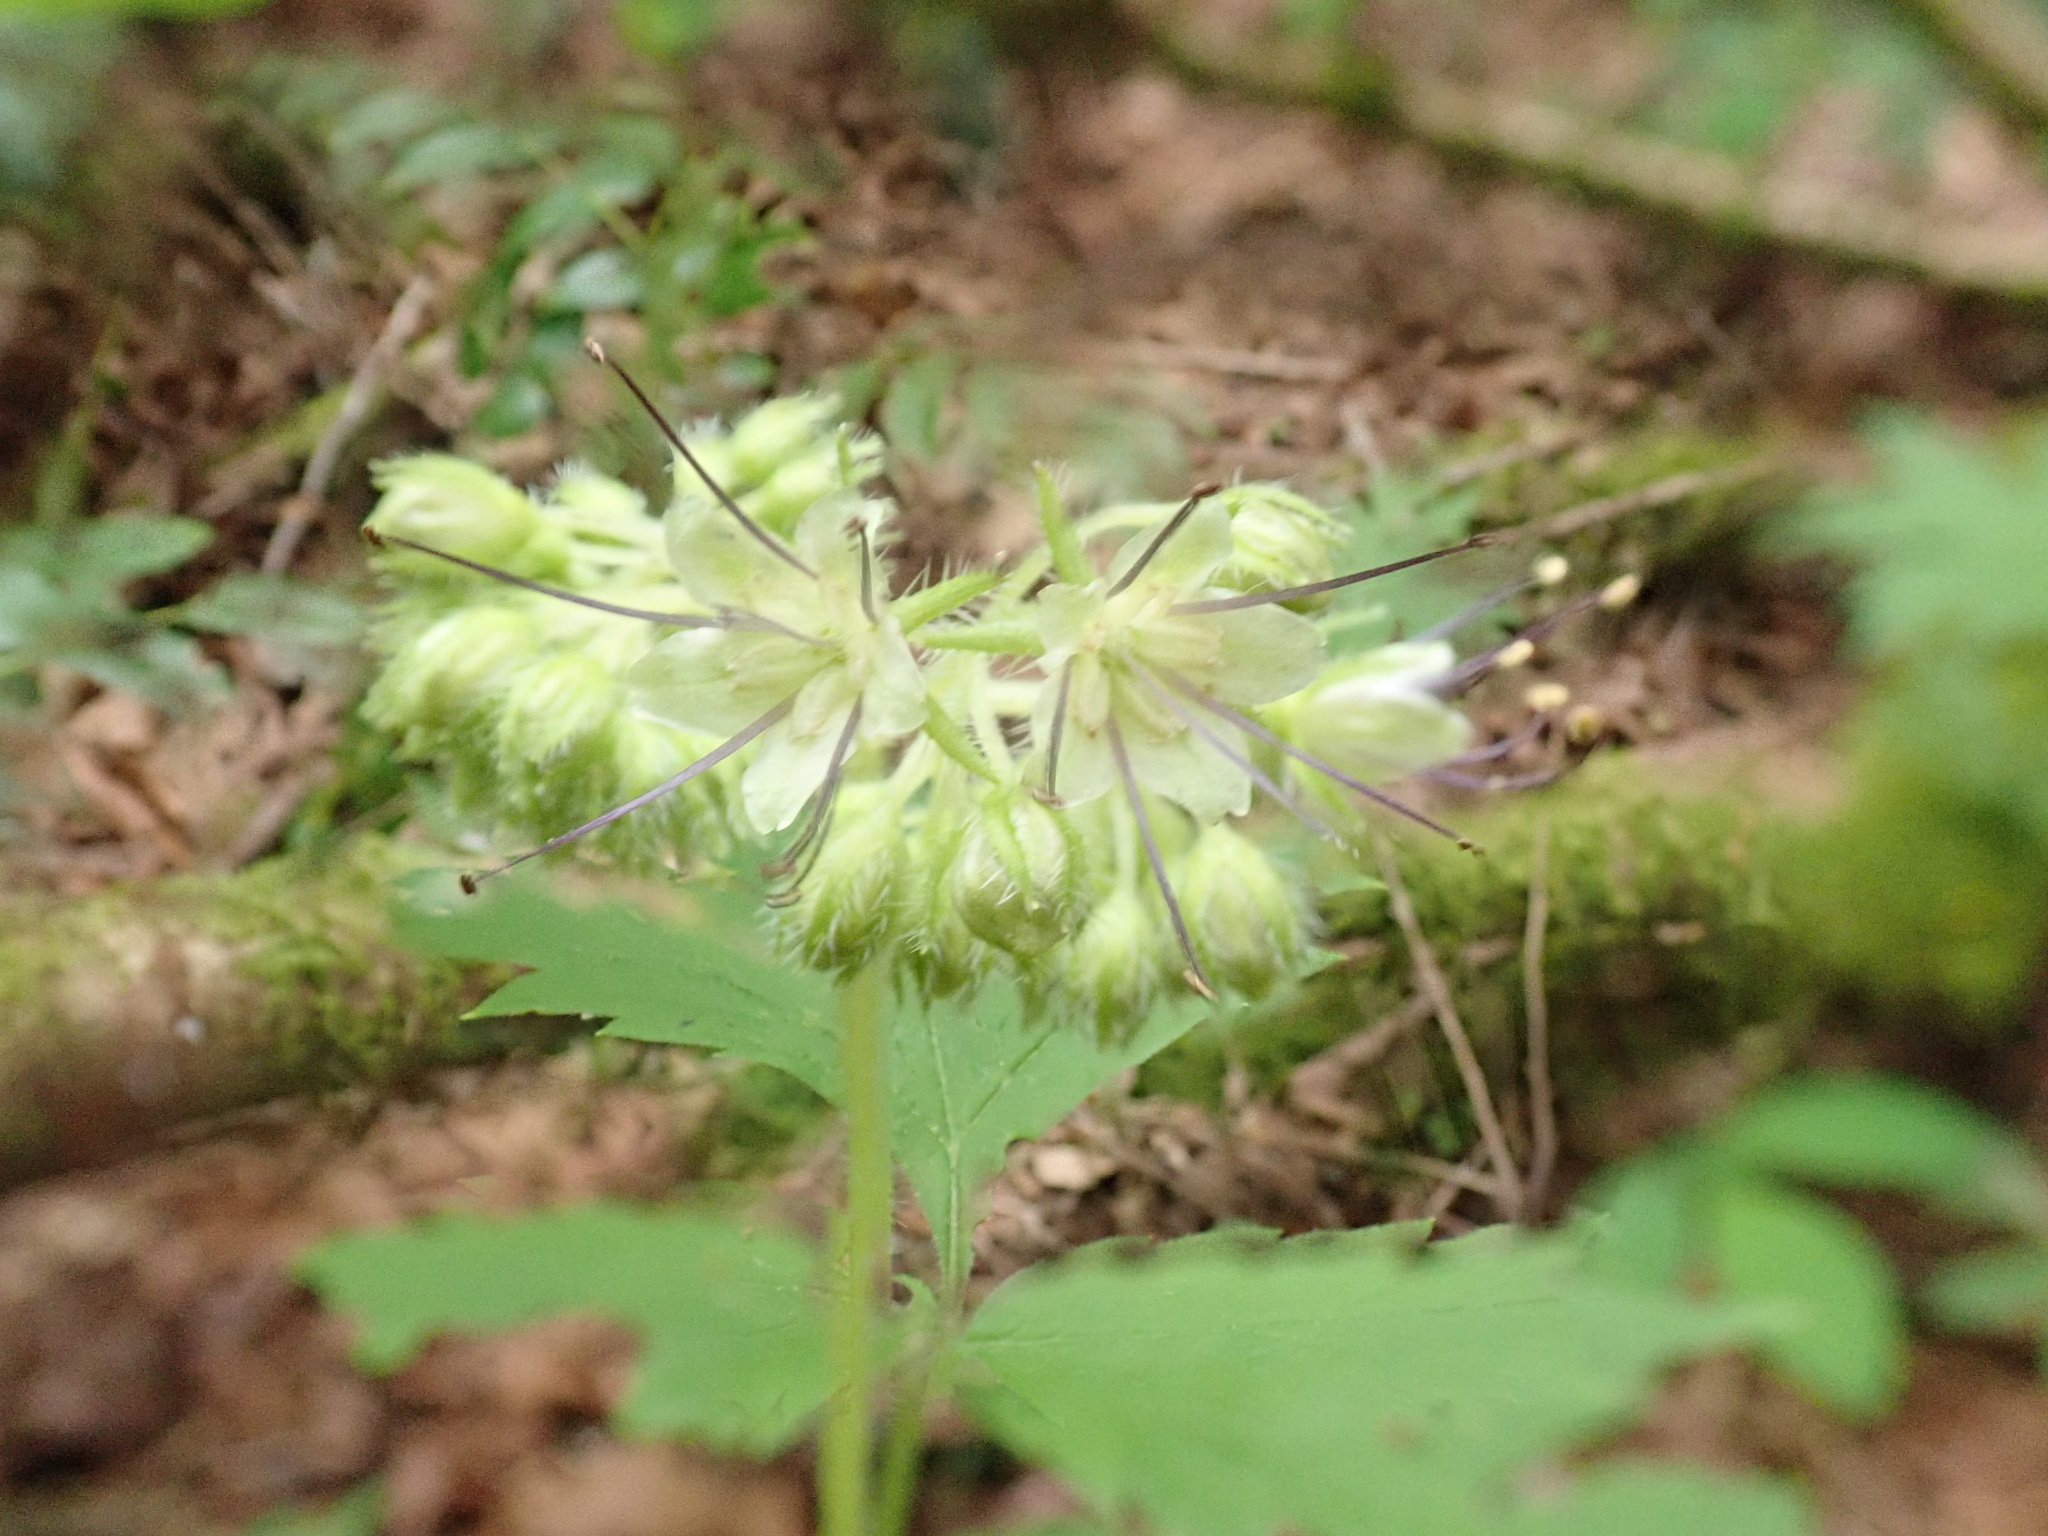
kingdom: Plantae
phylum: Tracheophyta
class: Magnoliopsida
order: Boraginales
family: Hydrophyllaceae
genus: Hydrophyllum
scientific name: Hydrophyllum tenuipes
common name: Pacific waterleaf
